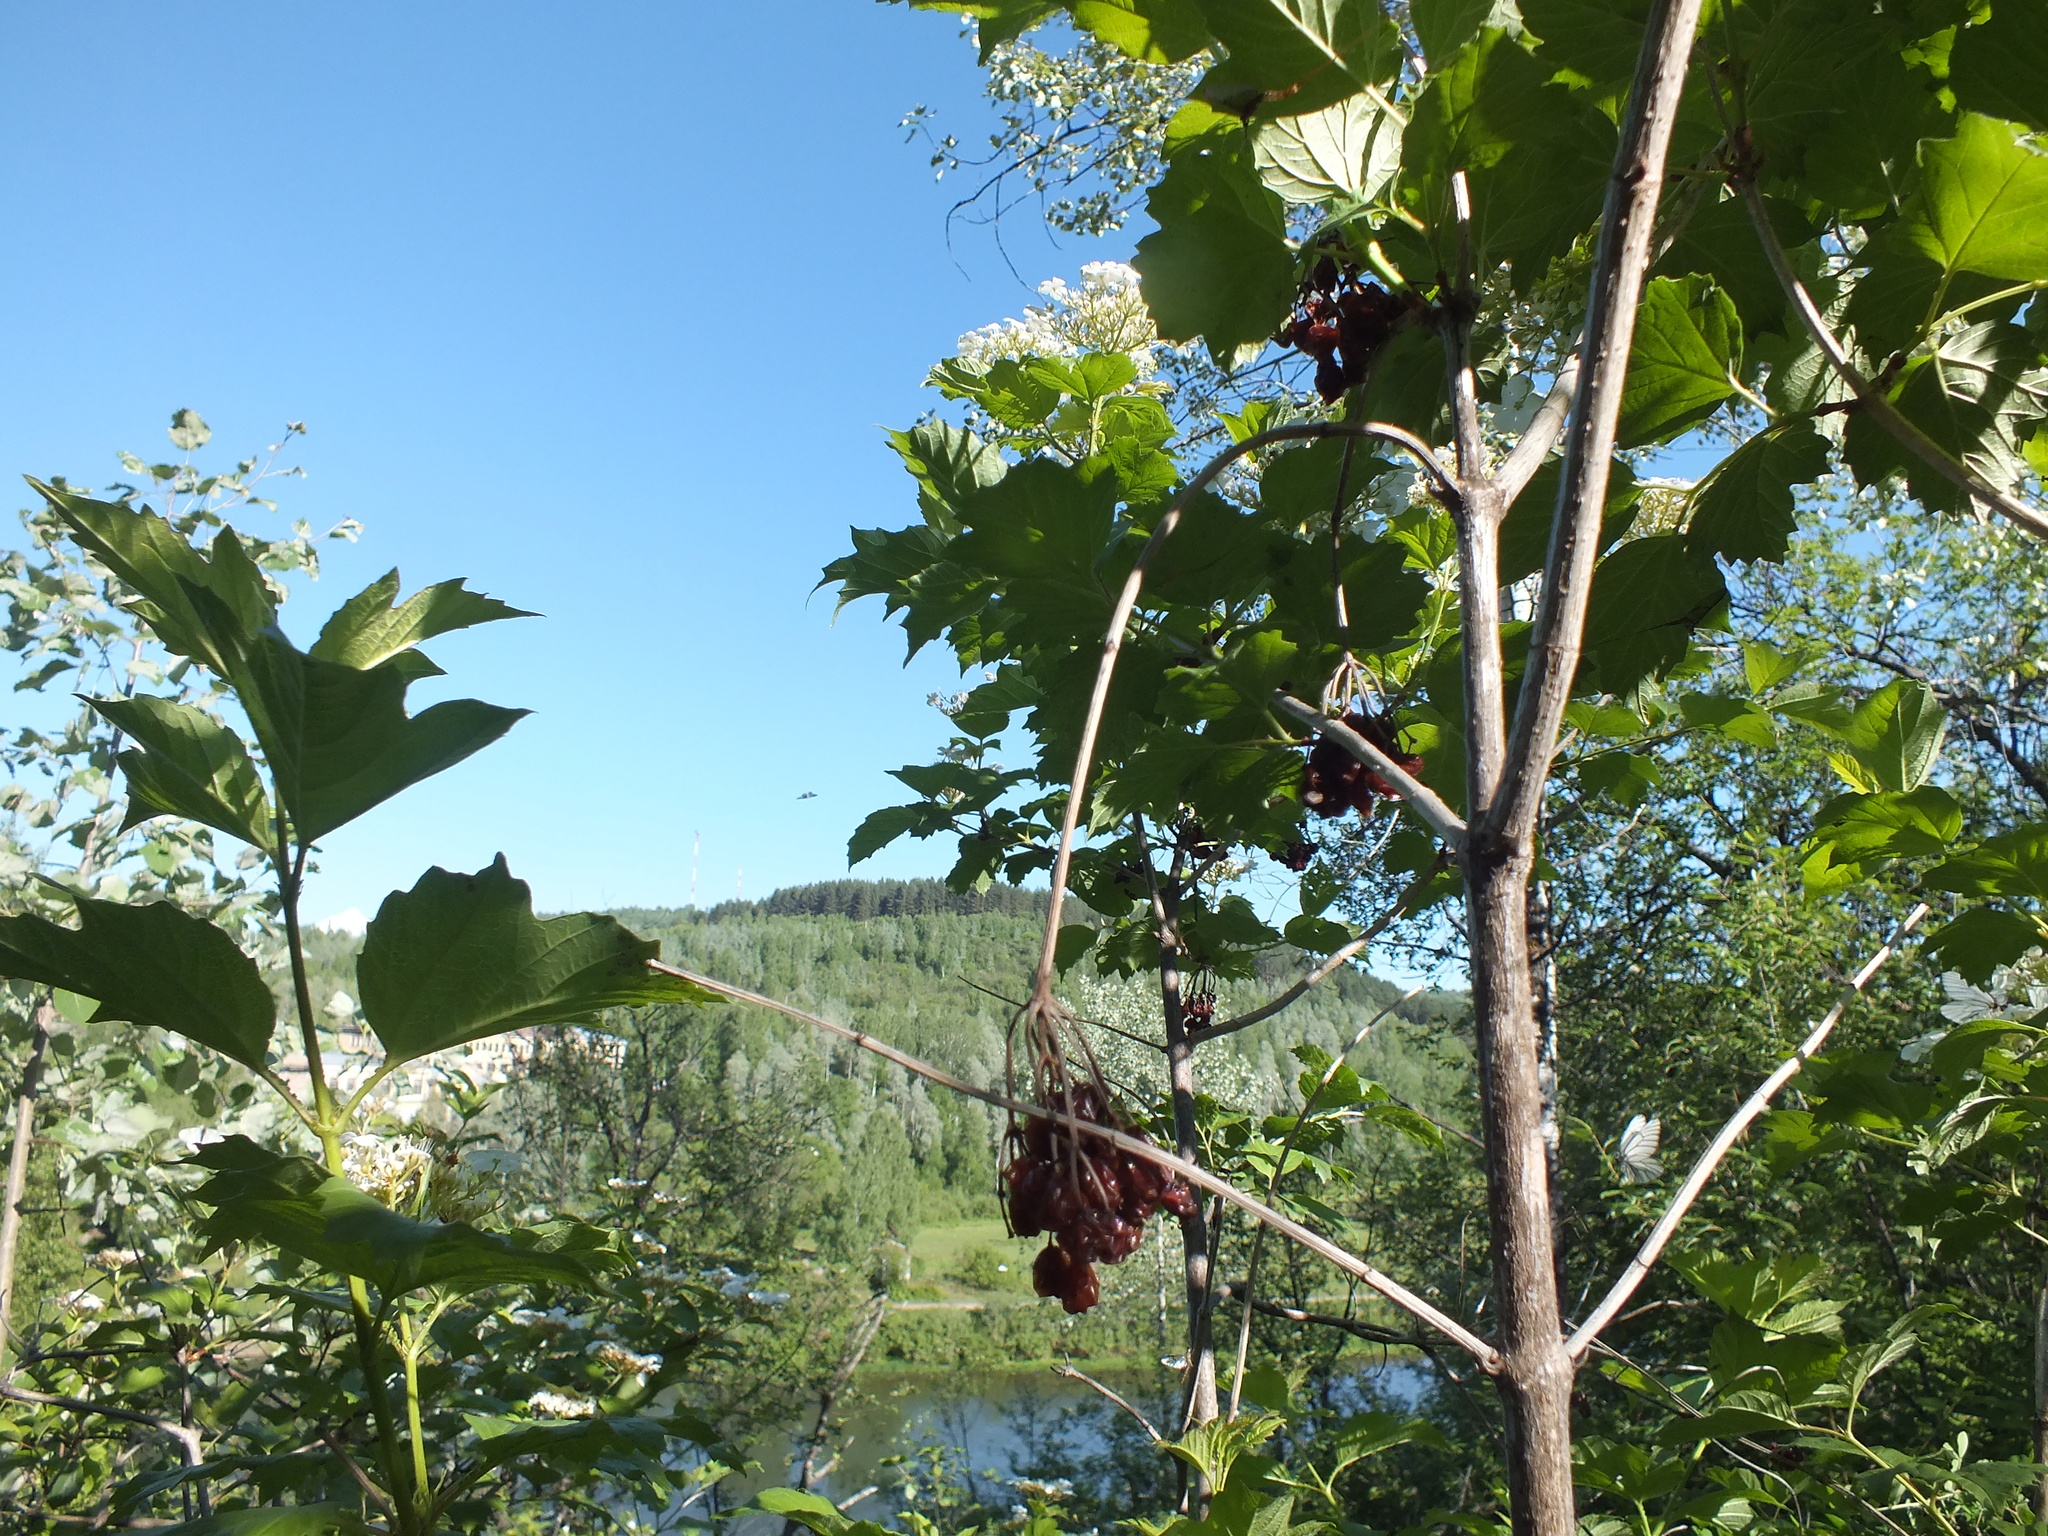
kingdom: Plantae
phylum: Tracheophyta
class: Magnoliopsida
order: Dipsacales
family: Viburnaceae
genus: Viburnum
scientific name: Viburnum opulus
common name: Guelder-rose
